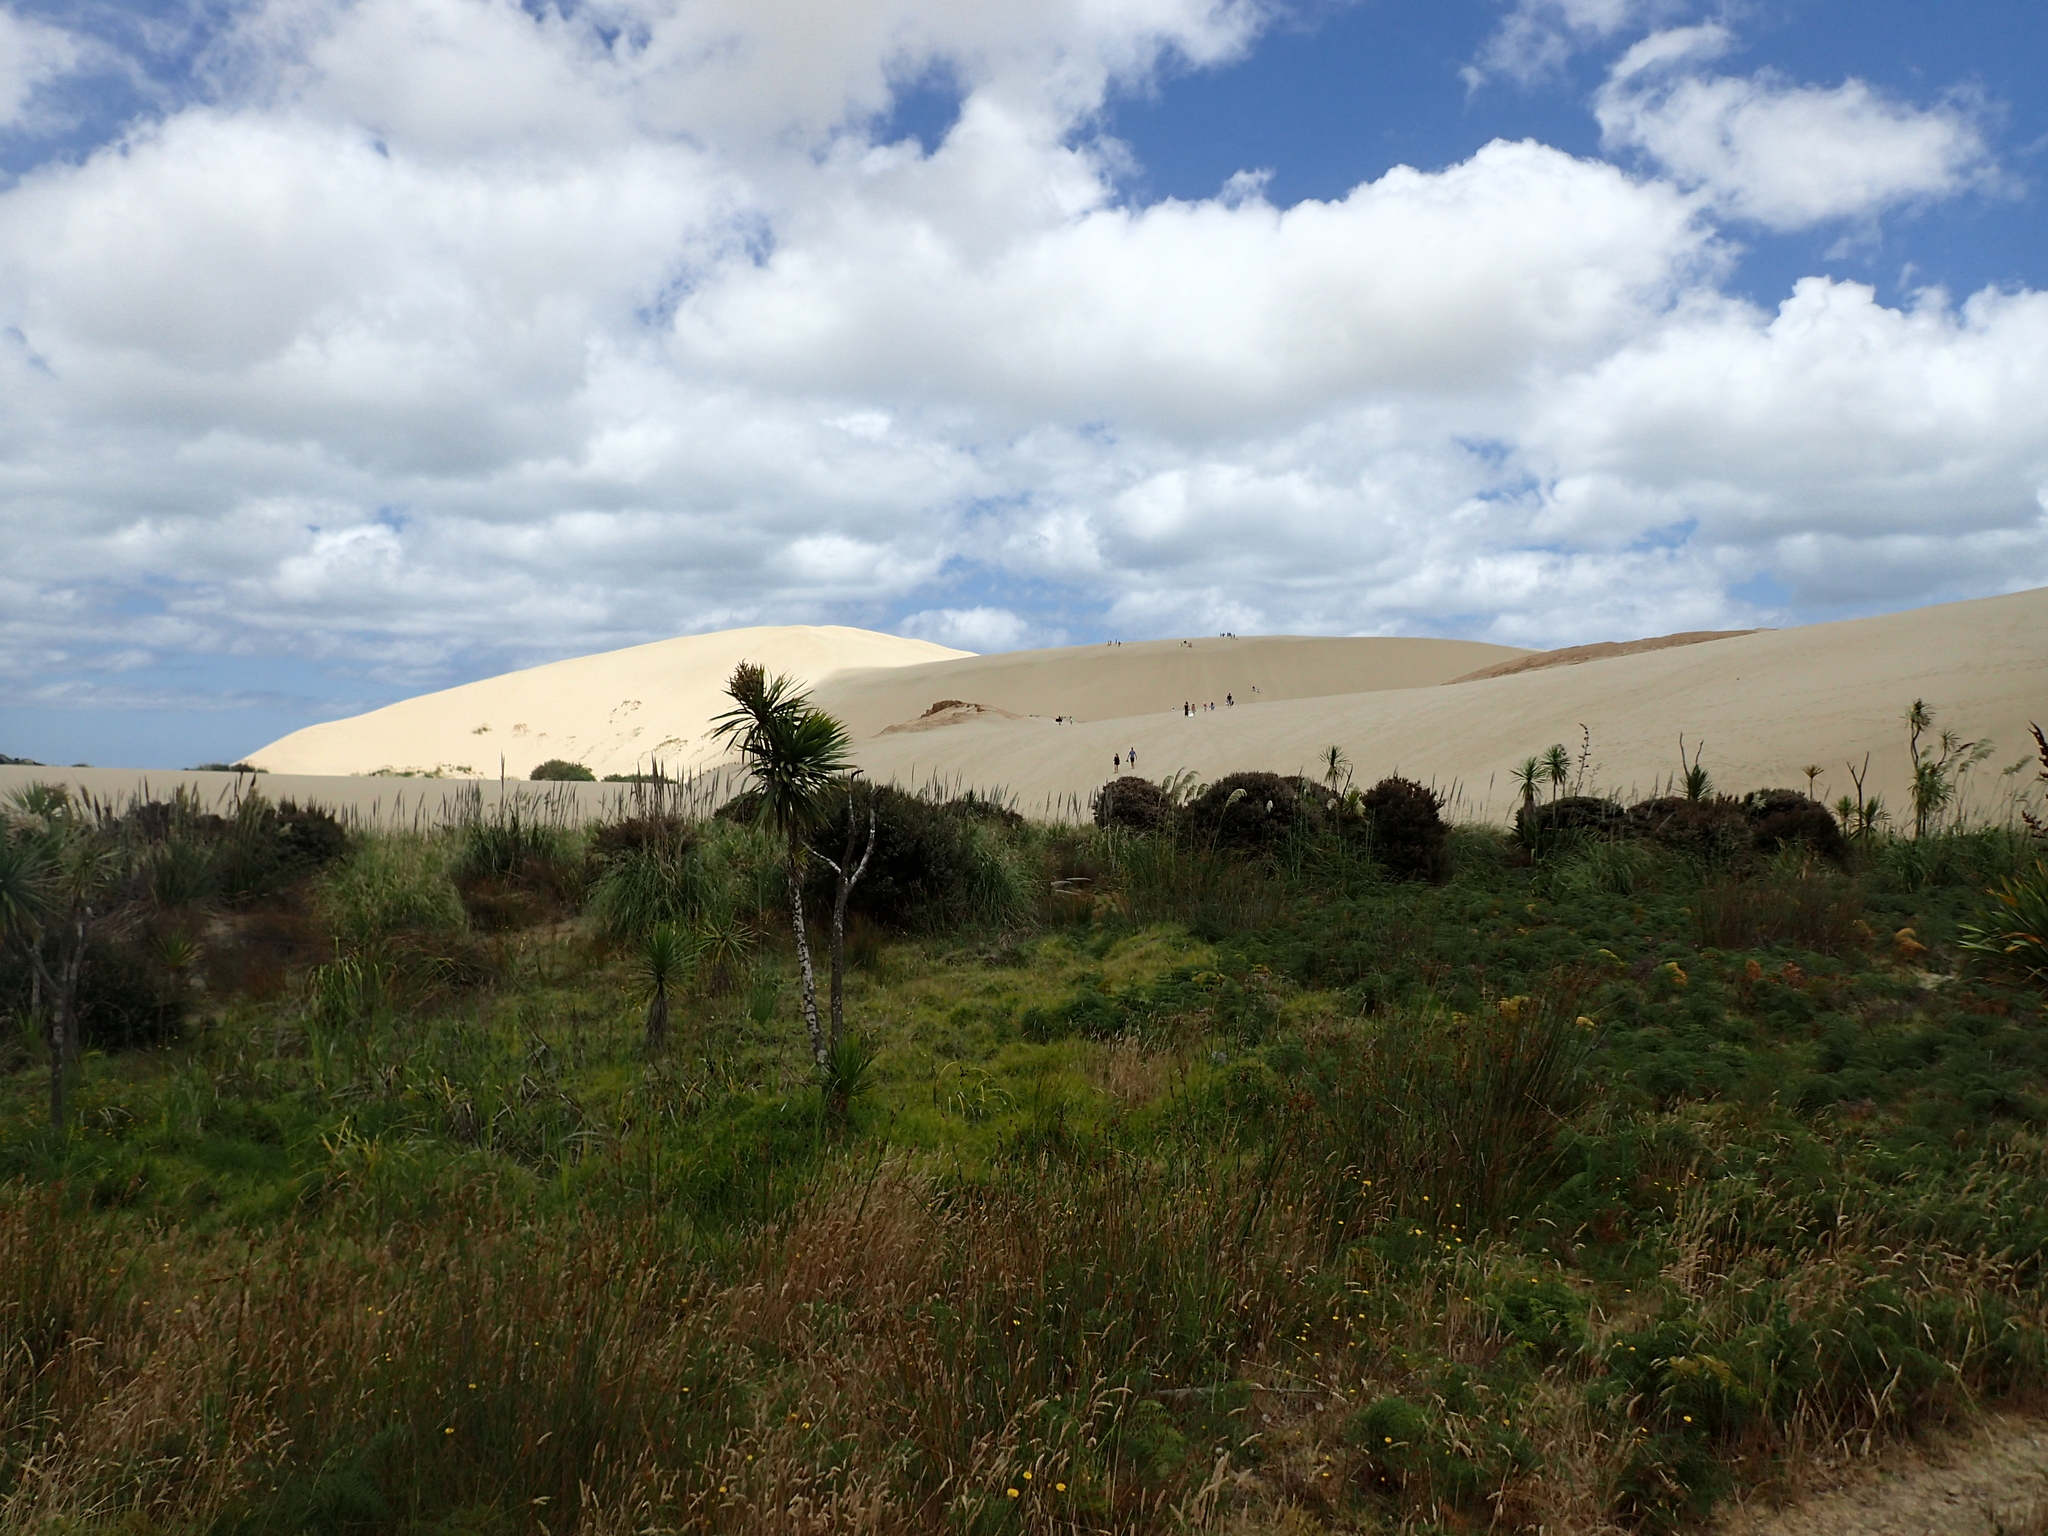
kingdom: Plantae
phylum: Tracheophyta
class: Liliopsida
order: Asparagales
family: Asparagaceae
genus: Cordyline
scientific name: Cordyline australis
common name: Cabbage-palm
